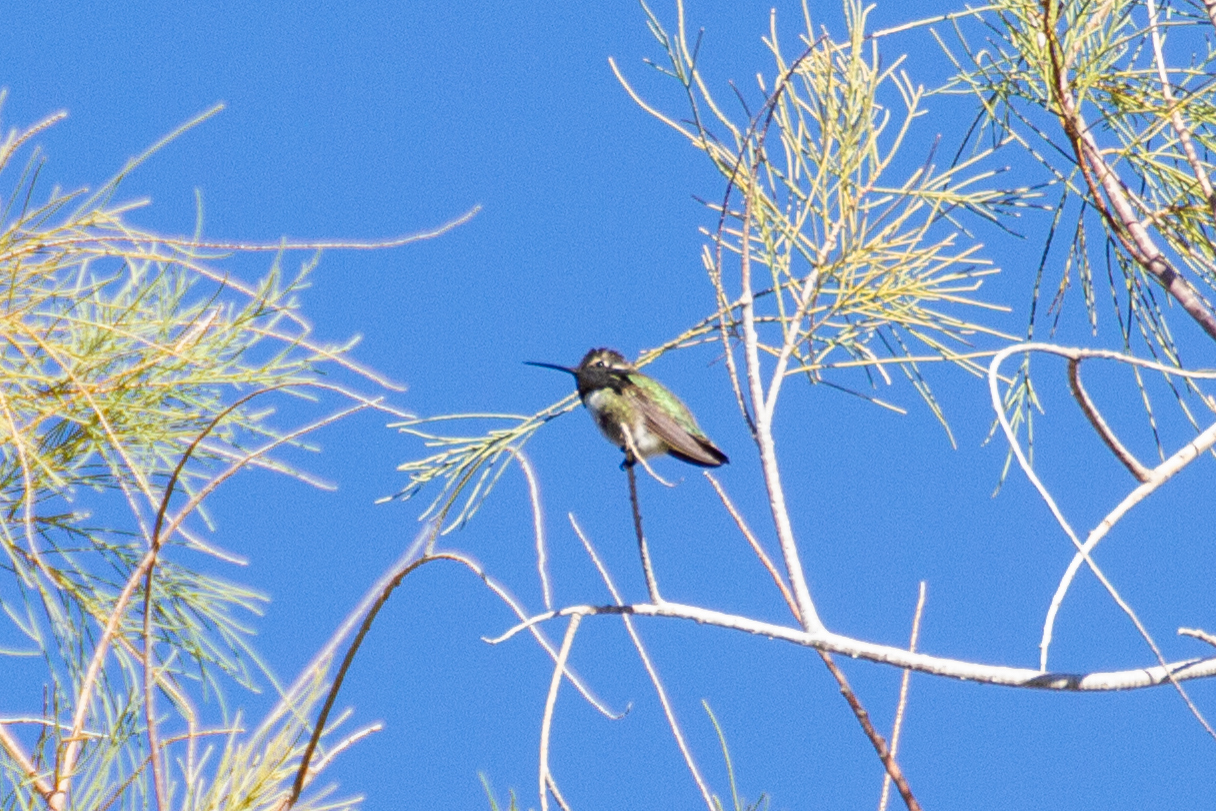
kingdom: Animalia
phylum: Chordata
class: Aves
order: Apodiformes
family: Trochilidae
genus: Calypte
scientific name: Calypte costae
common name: Costa's hummingbird
